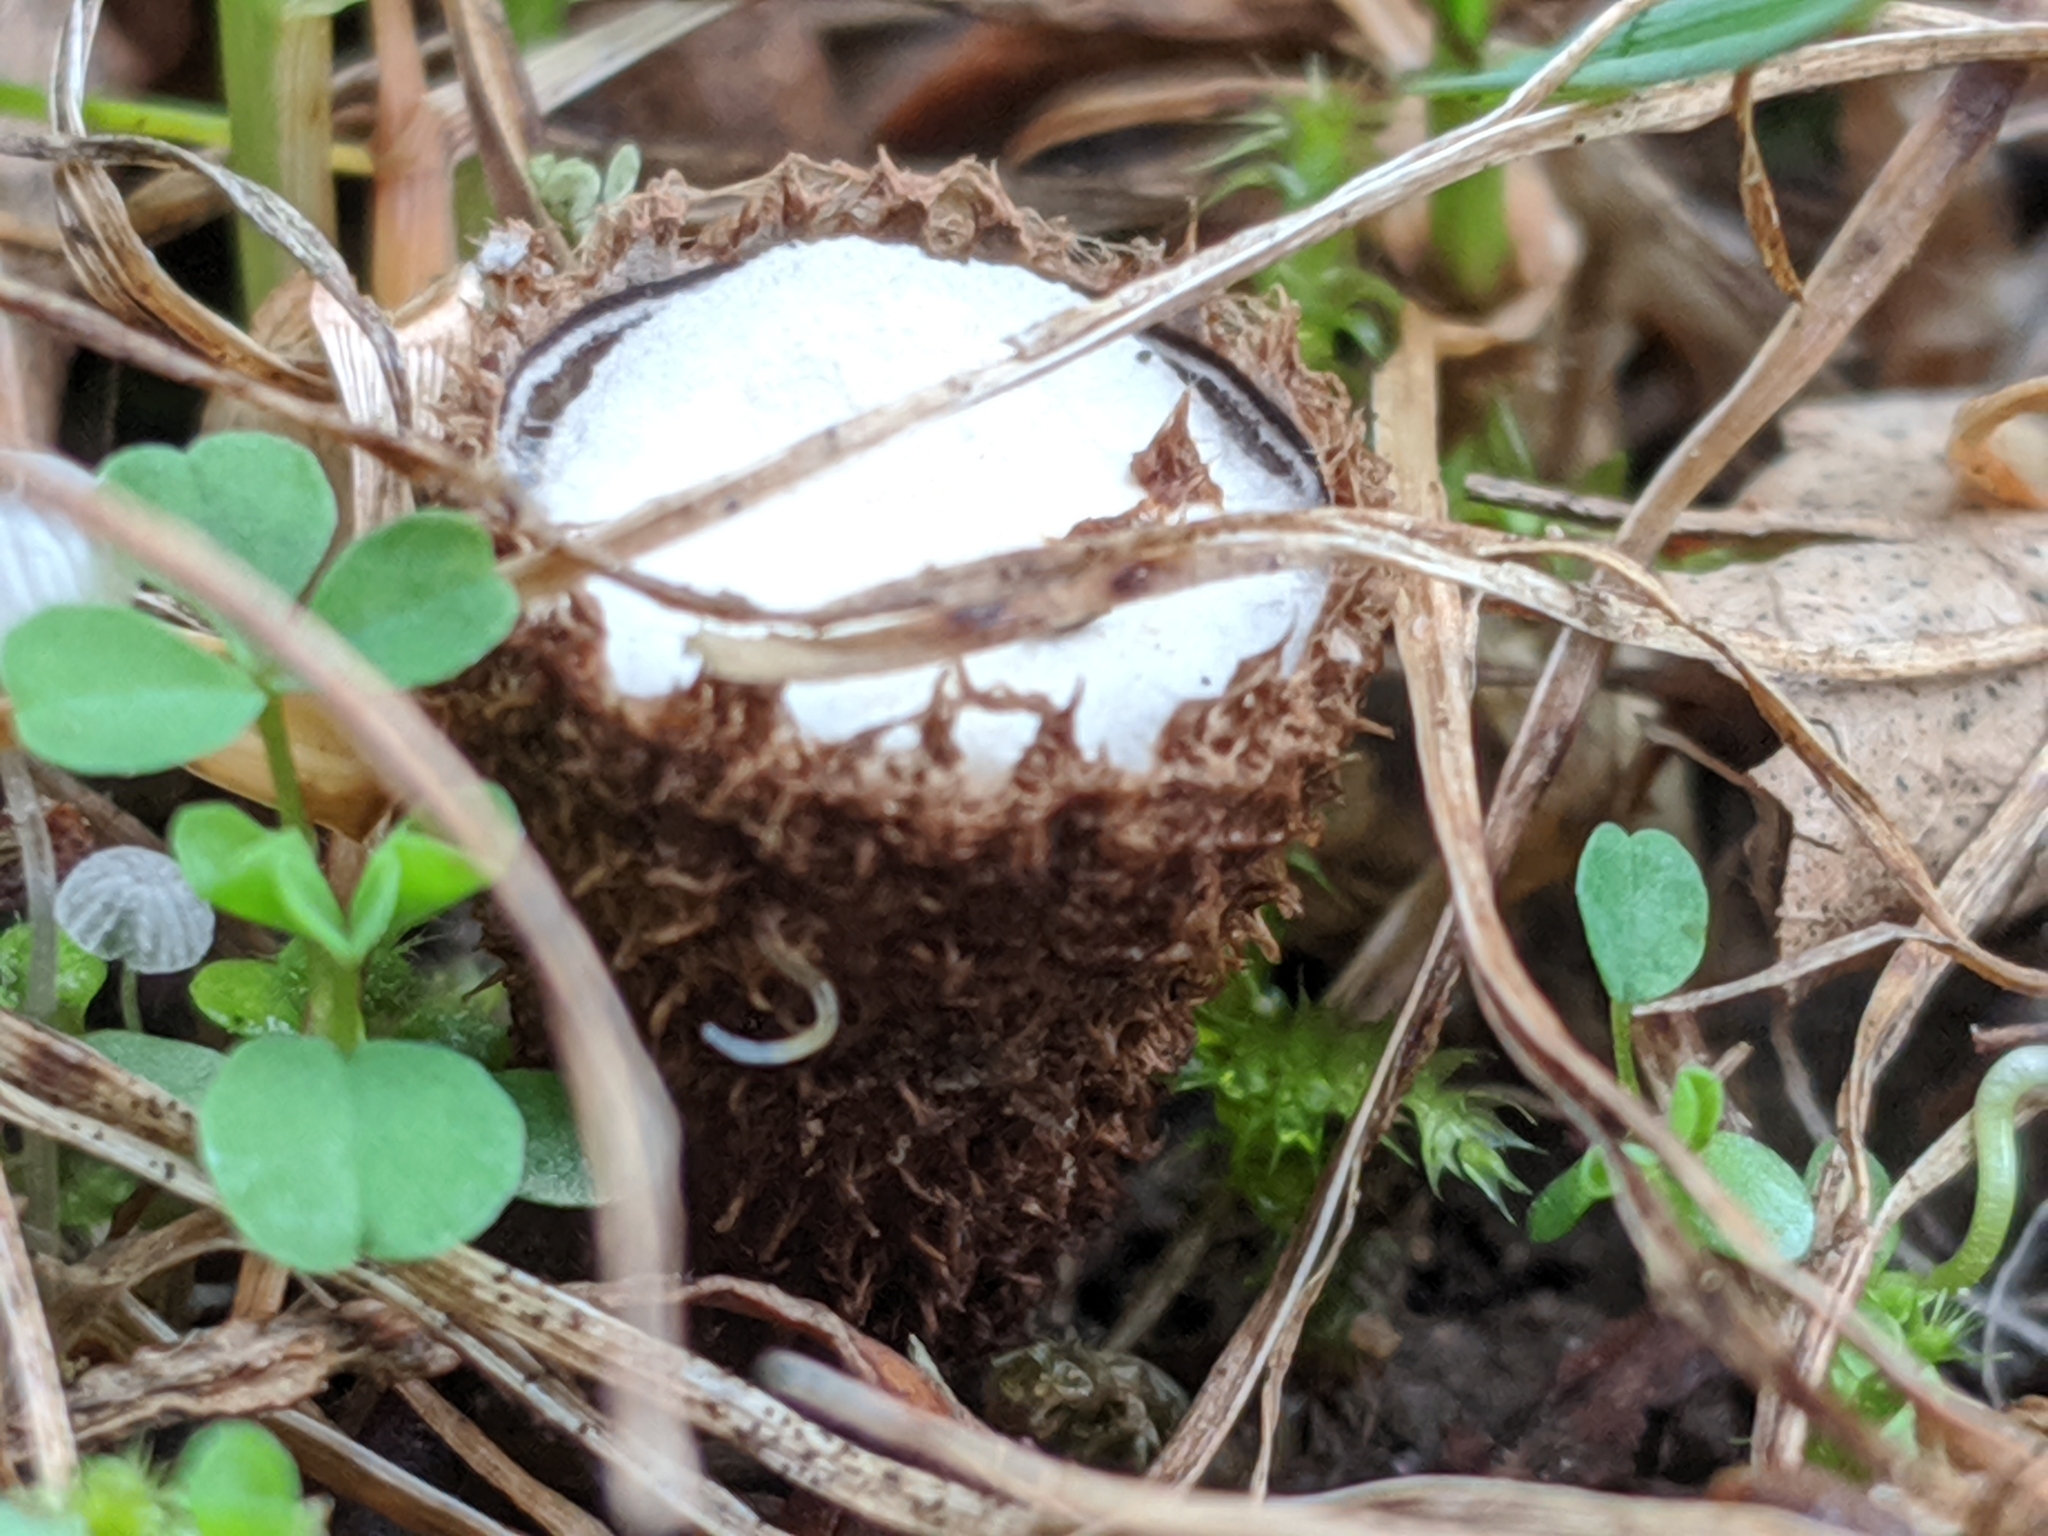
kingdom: Fungi
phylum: Basidiomycota
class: Agaricomycetes
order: Agaricales
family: Agaricaceae
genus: Cyathus
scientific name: Cyathus striatus
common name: Fluted bird's nest
